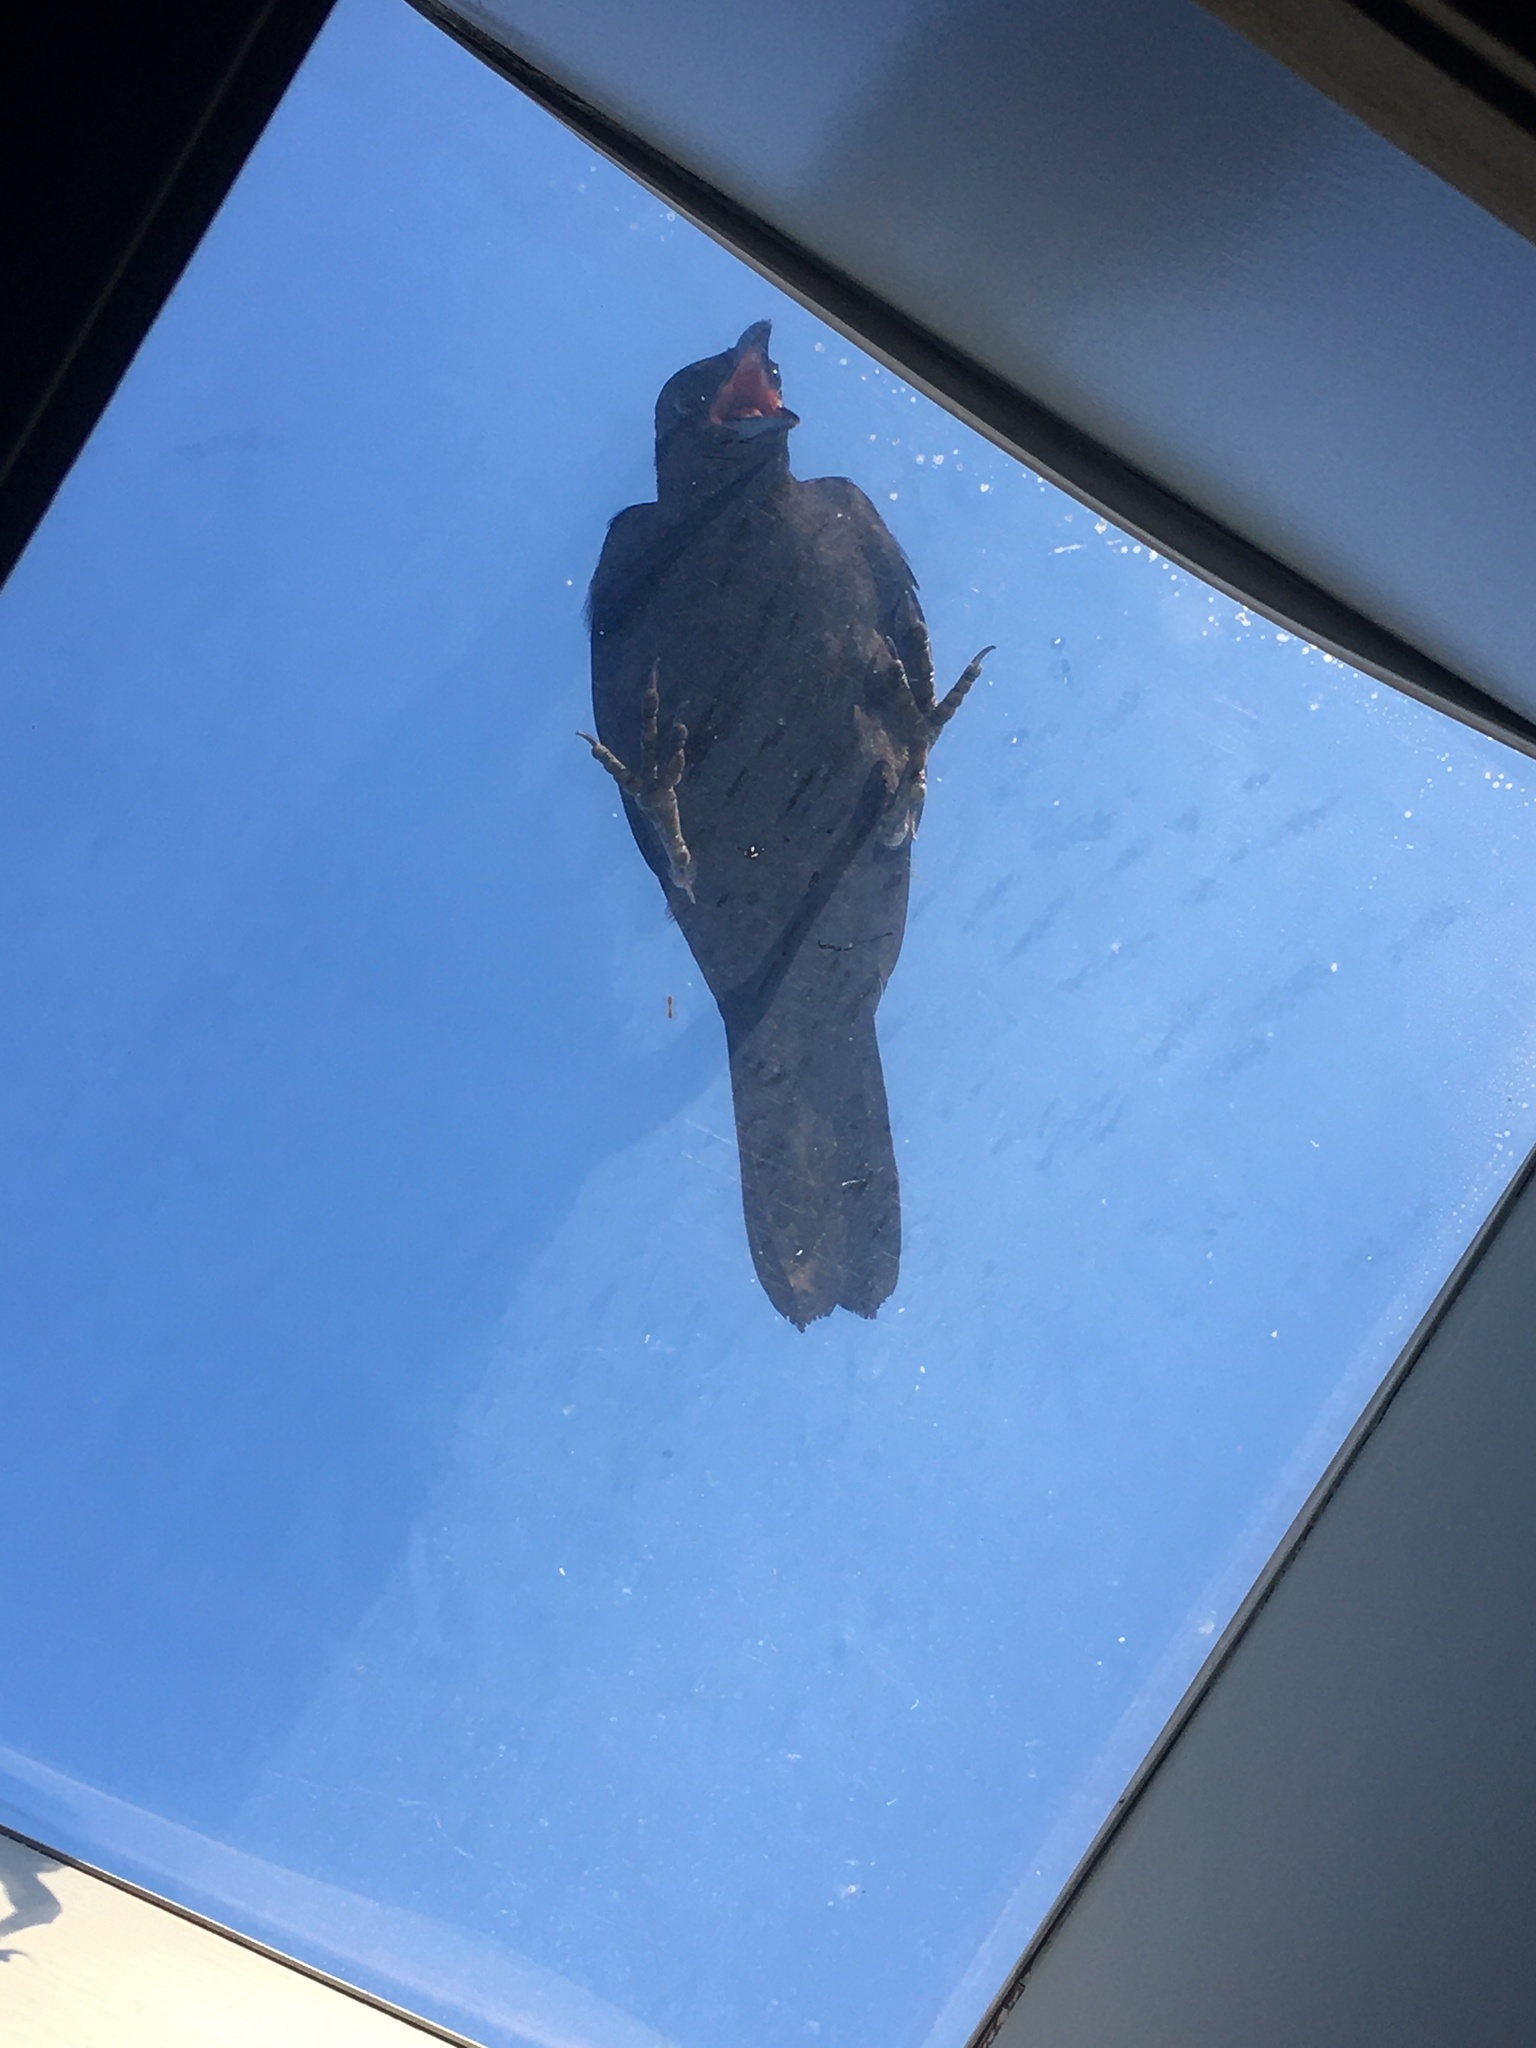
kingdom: Animalia
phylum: Chordata
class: Aves
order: Passeriformes
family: Corvidae
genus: Corvus
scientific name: Corvus brachyrhynchos
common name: American crow
